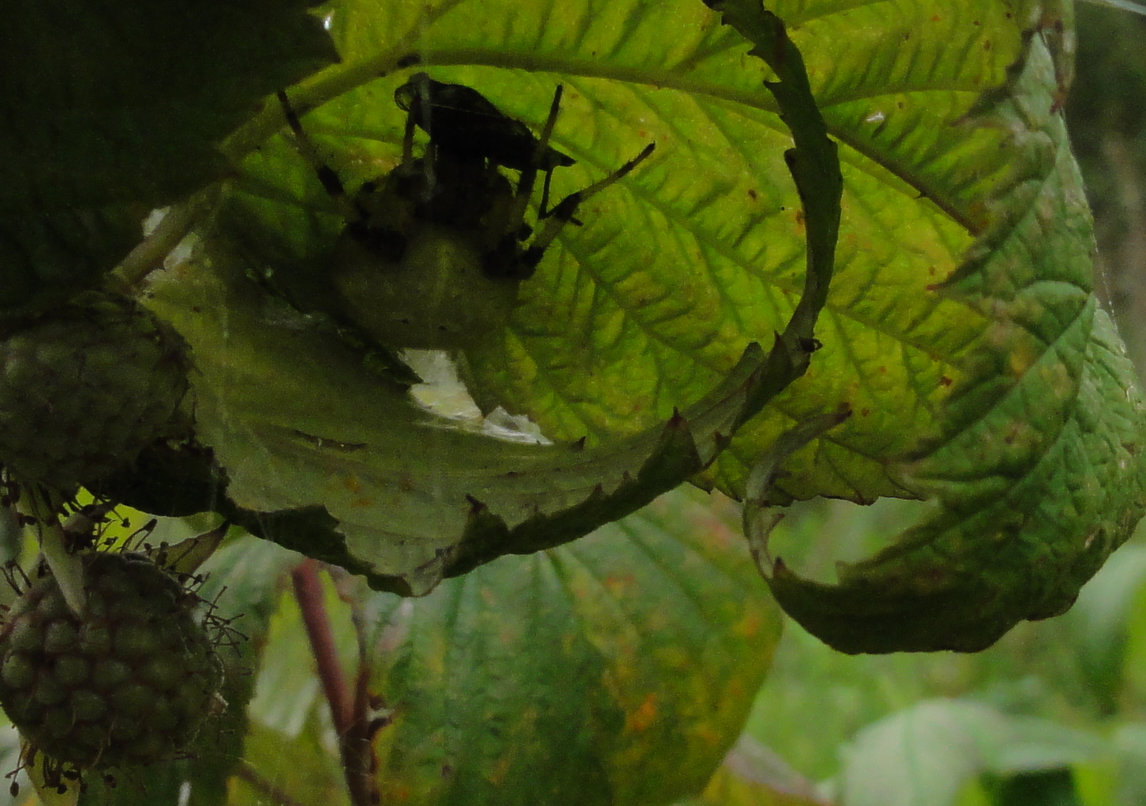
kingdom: Animalia
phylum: Arthropoda
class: Arachnida
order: Araneae
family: Araneidae
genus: Araneus
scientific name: Araneus quadratus
